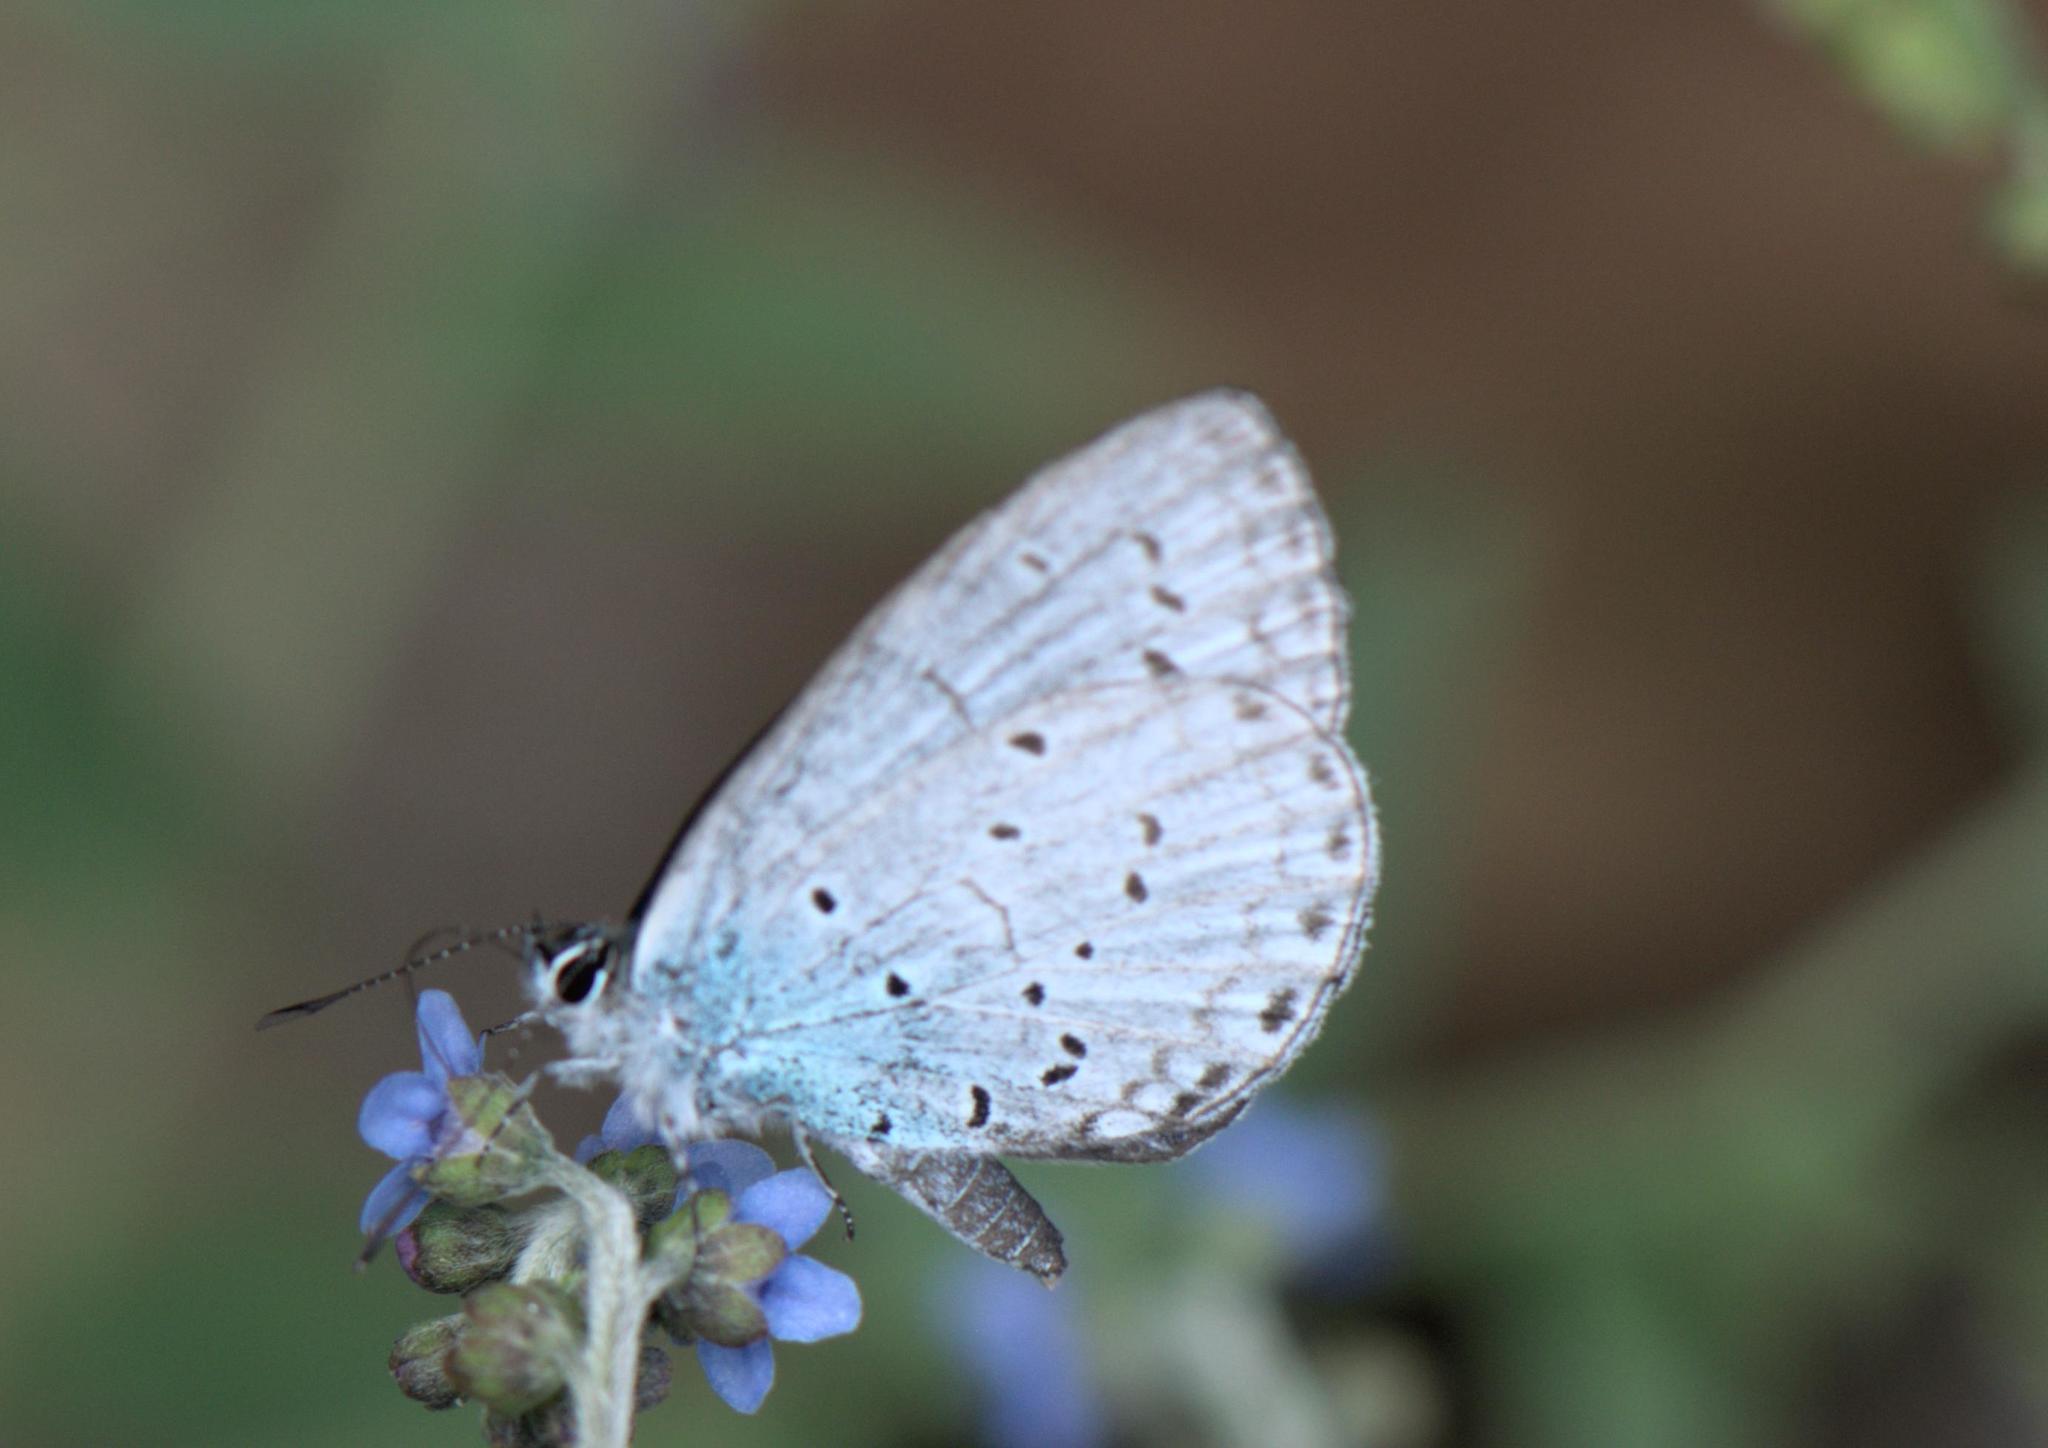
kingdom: Animalia
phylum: Arthropoda
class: Insecta
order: Lepidoptera
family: Lycaenidae
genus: Celastrina
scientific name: Celastrina lavendularis
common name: Plain hedge blue
